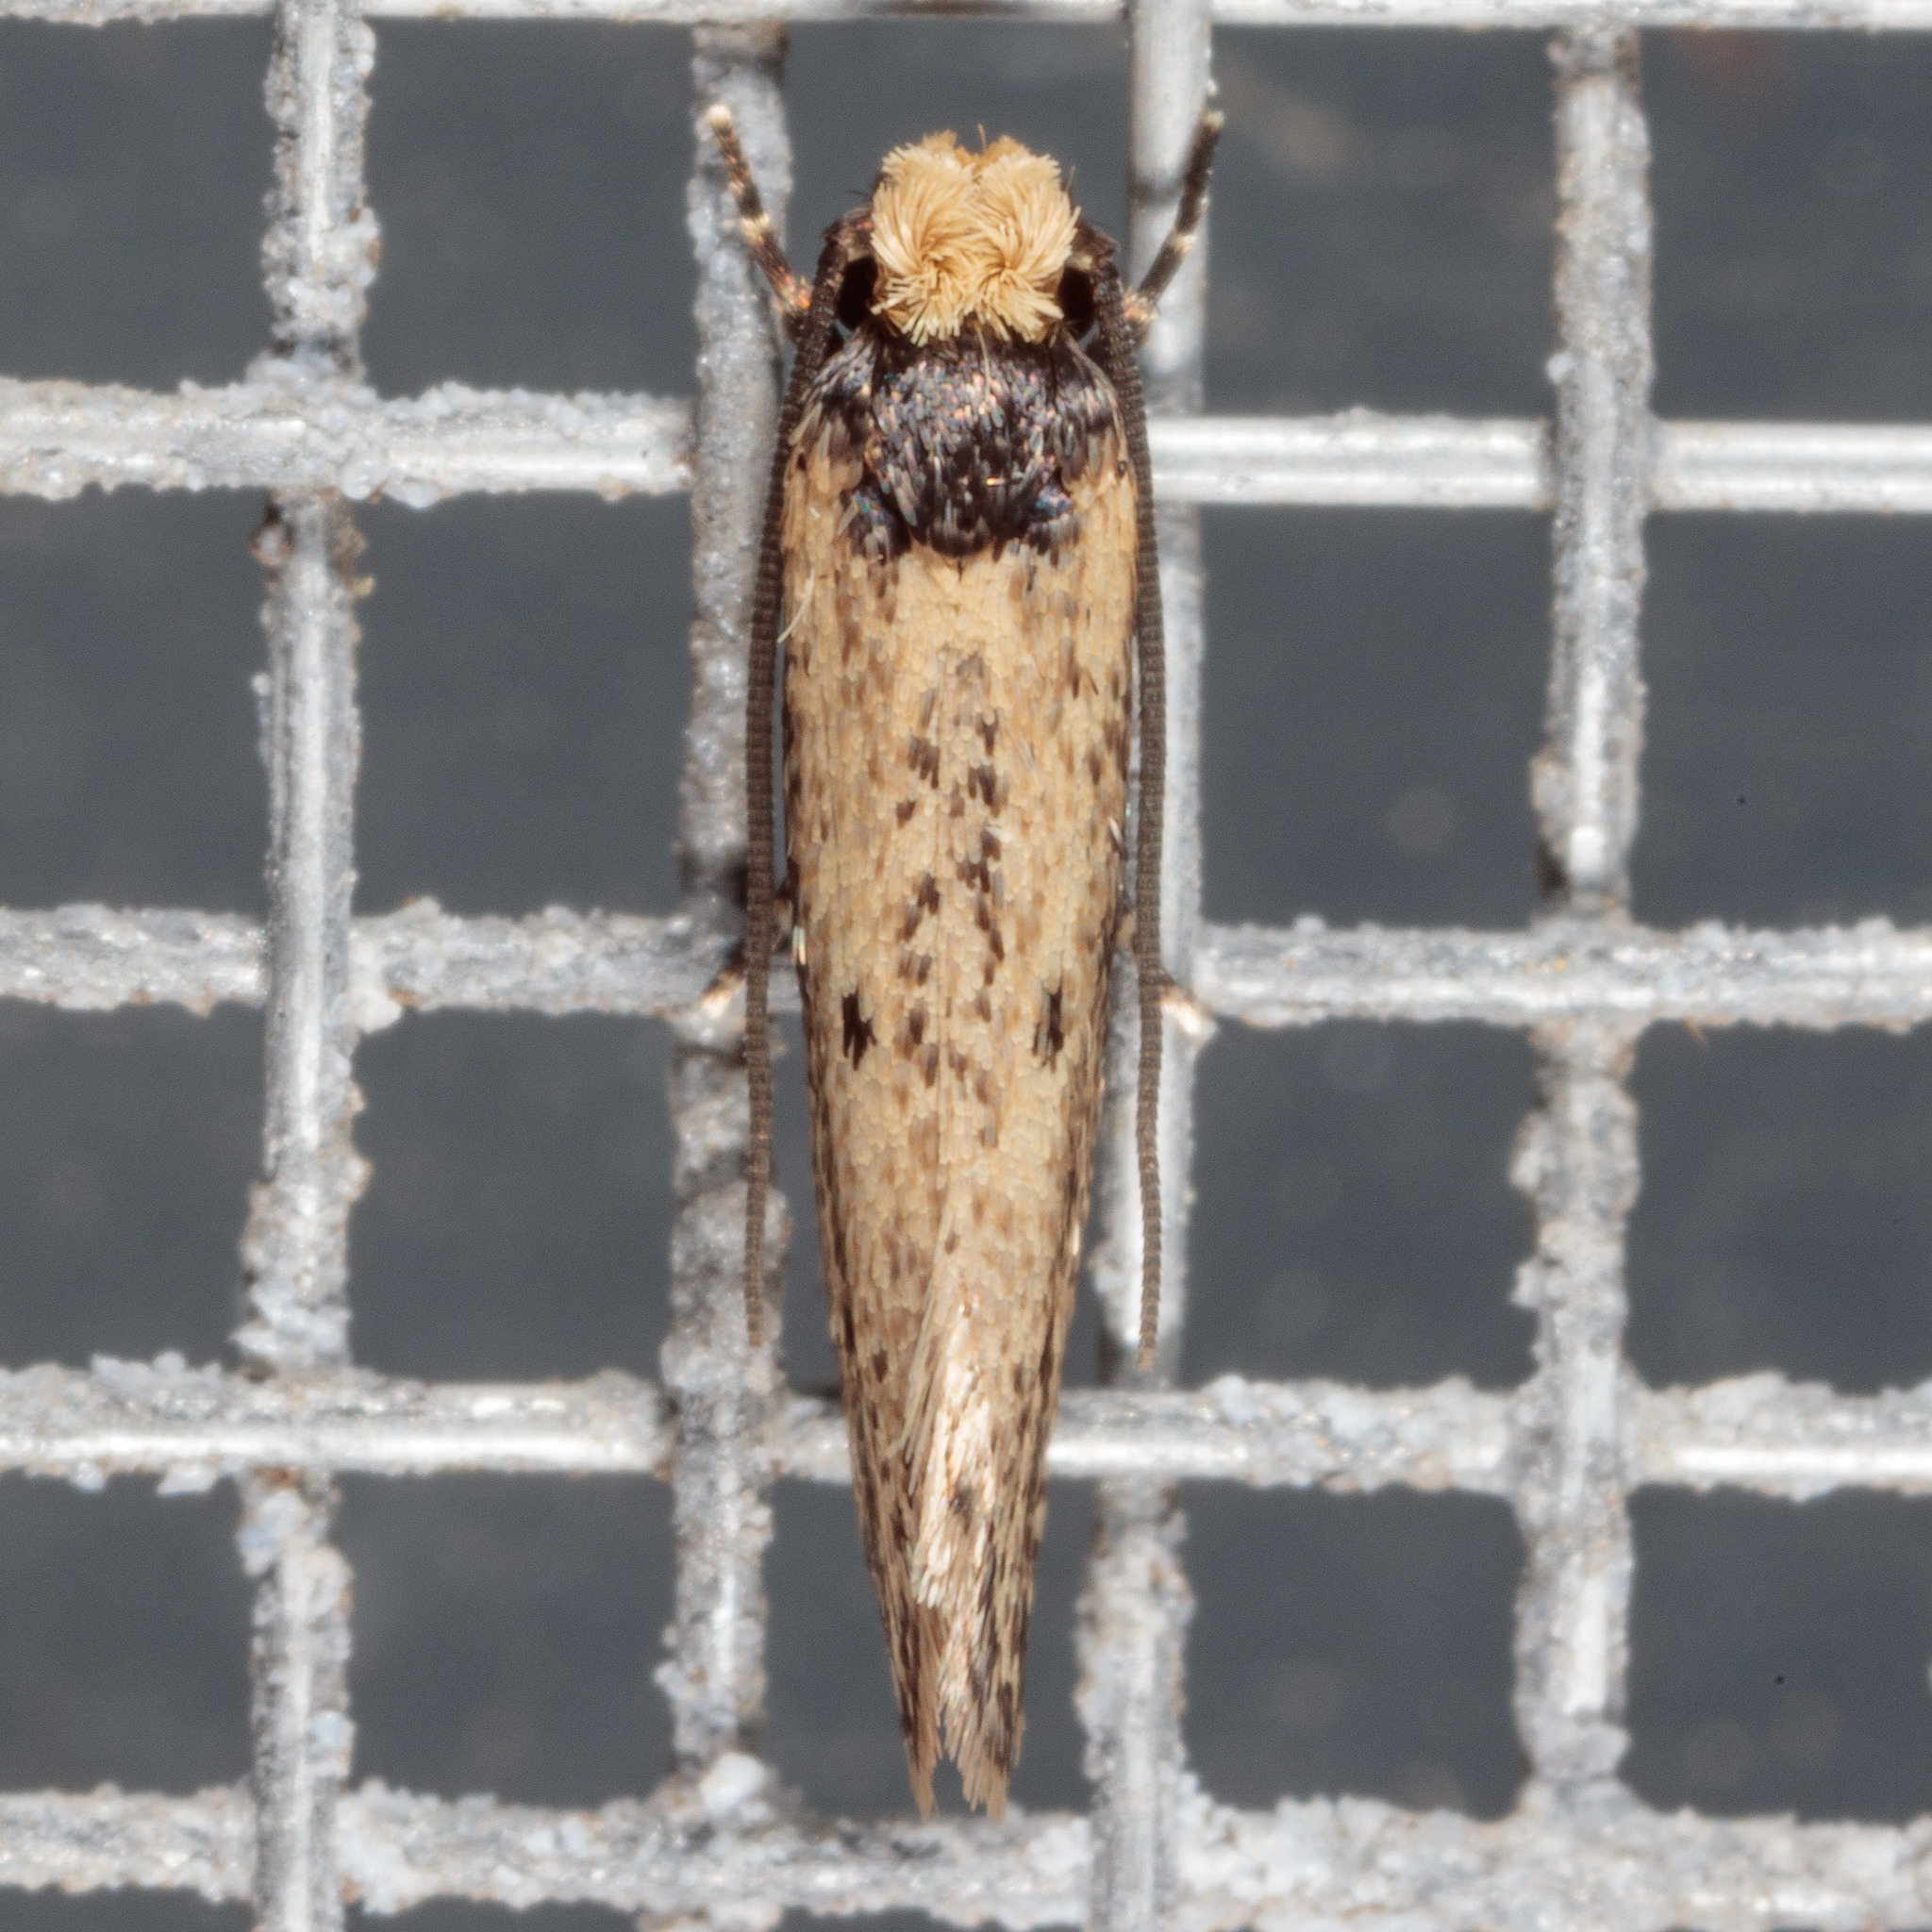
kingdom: Animalia
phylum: Arthropoda
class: Insecta
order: Lepidoptera
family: Tineidae
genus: Tinea
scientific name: Tinea apicimaculella
